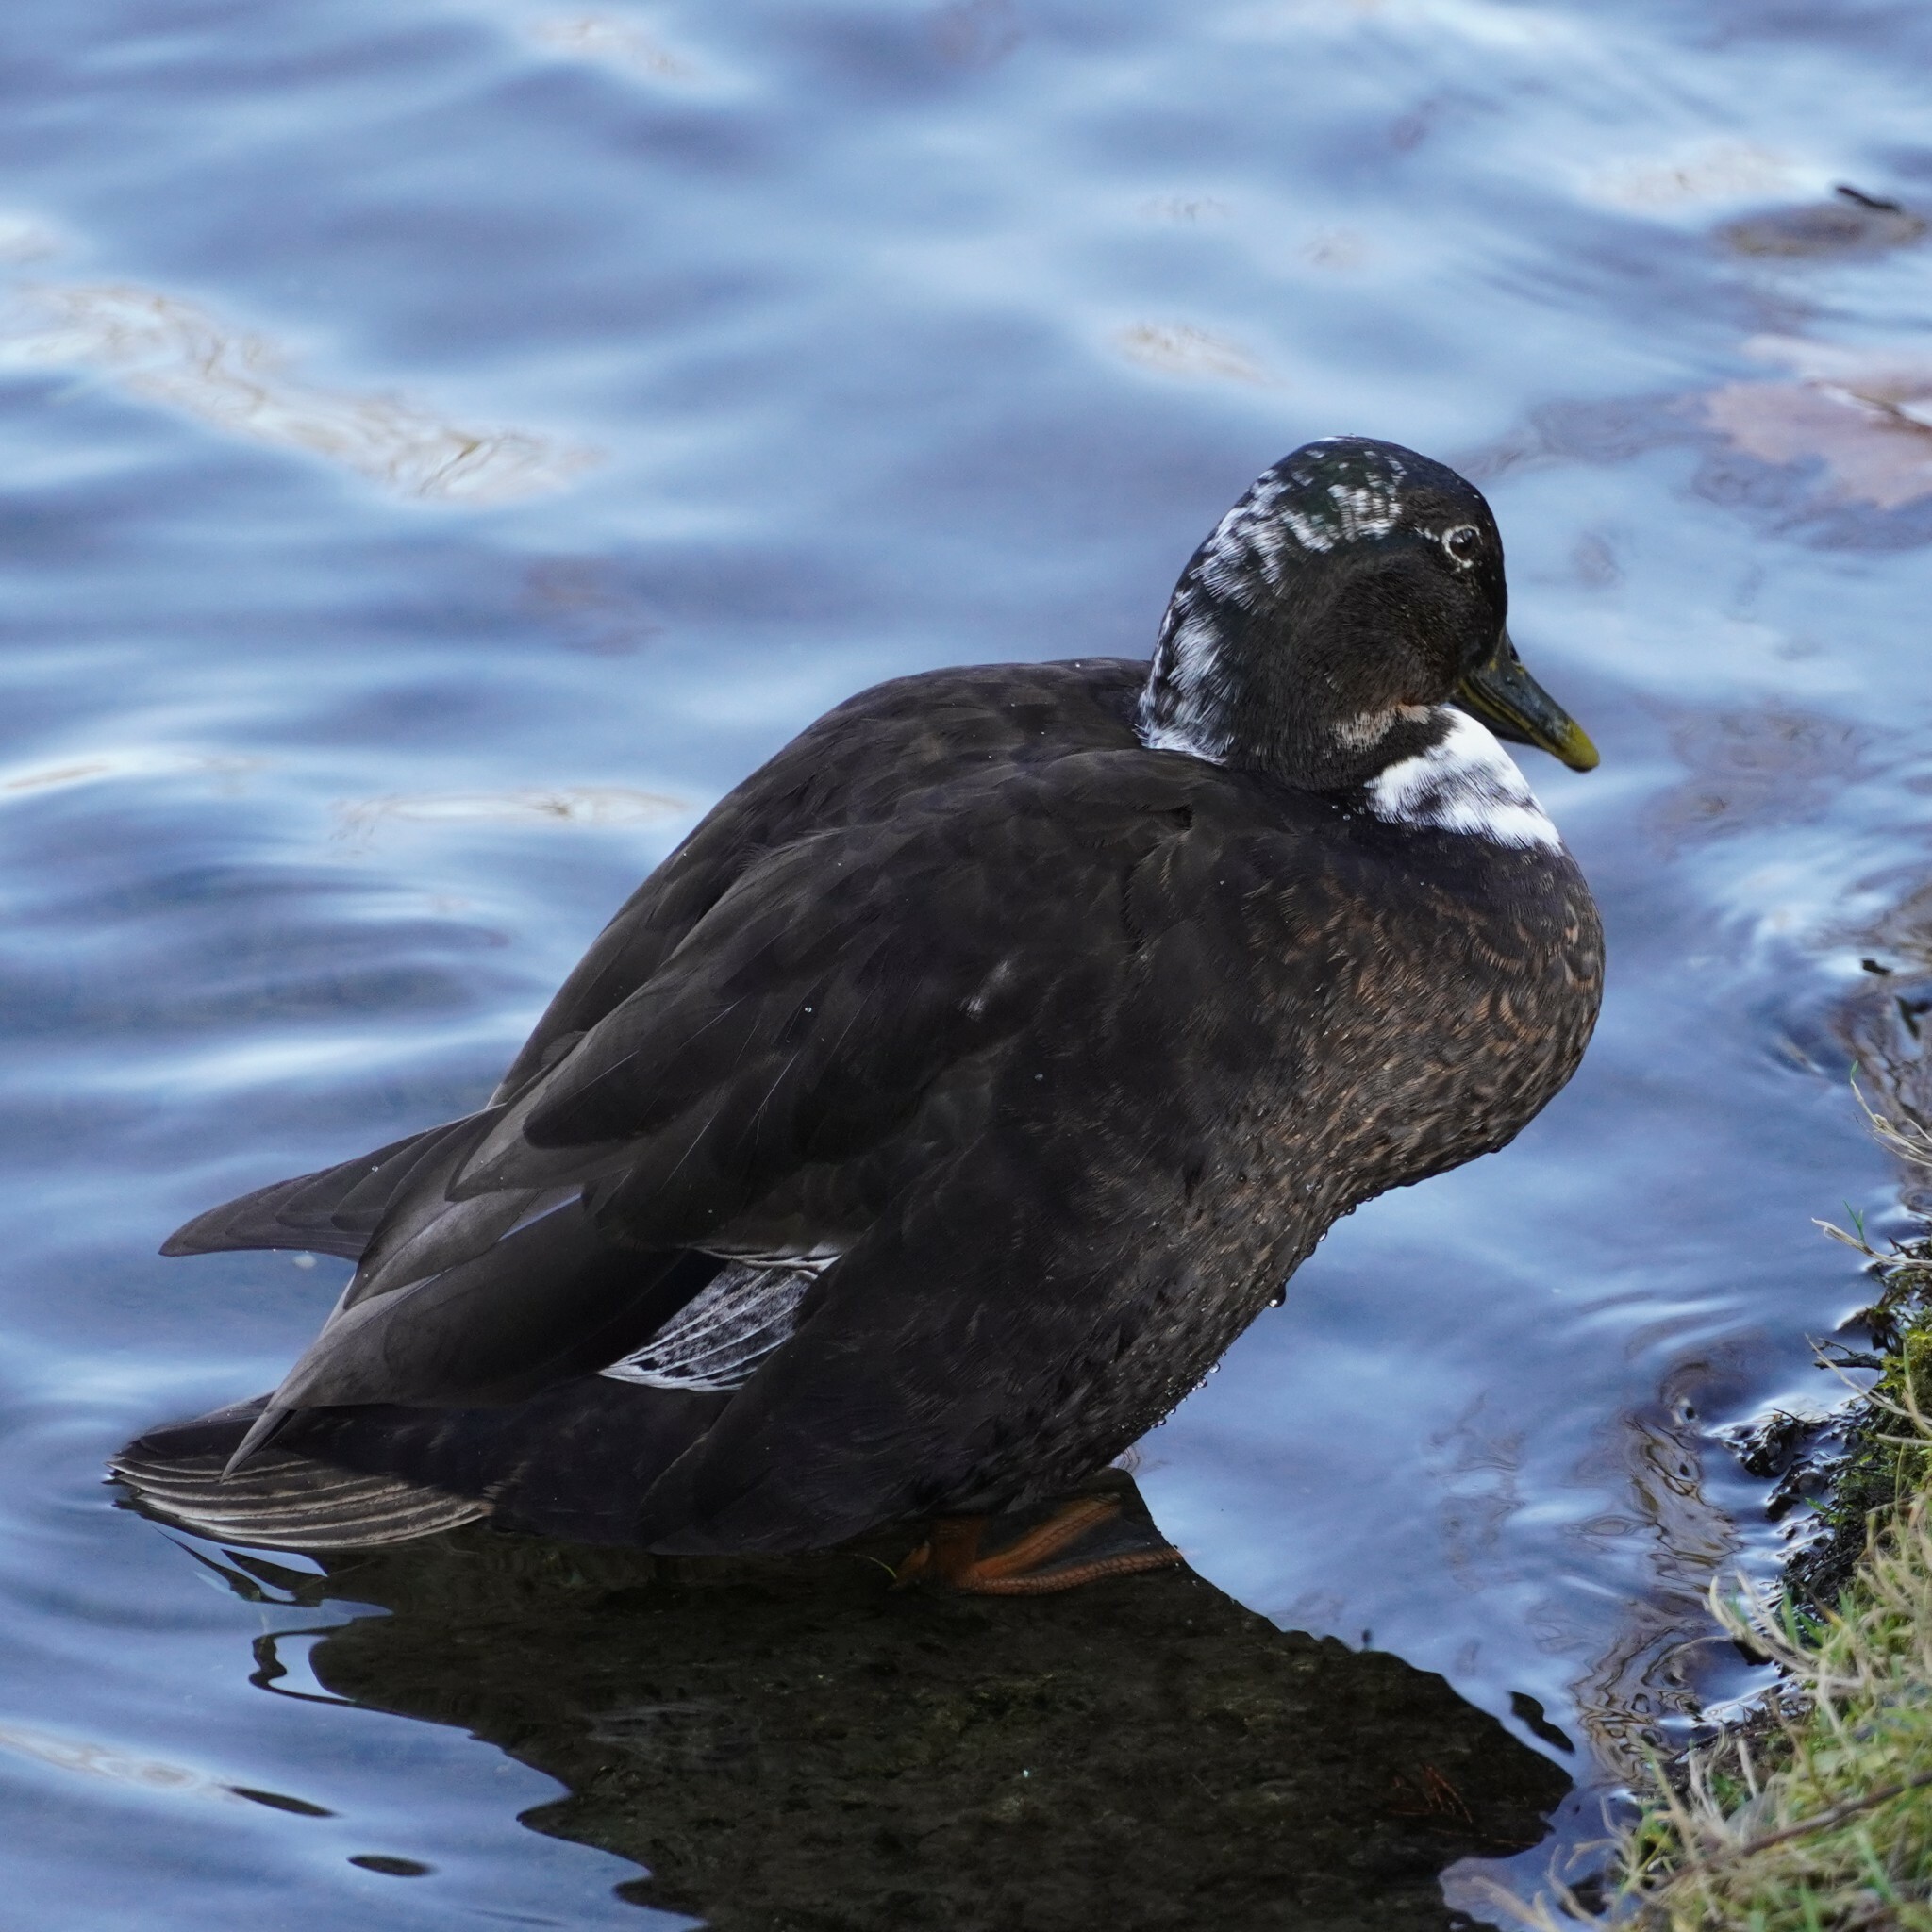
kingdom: Animalia
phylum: Chordata
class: Aves
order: Anseriformes
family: Anatidae
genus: Anas
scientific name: Anas platyrhynchos
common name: Mallard
